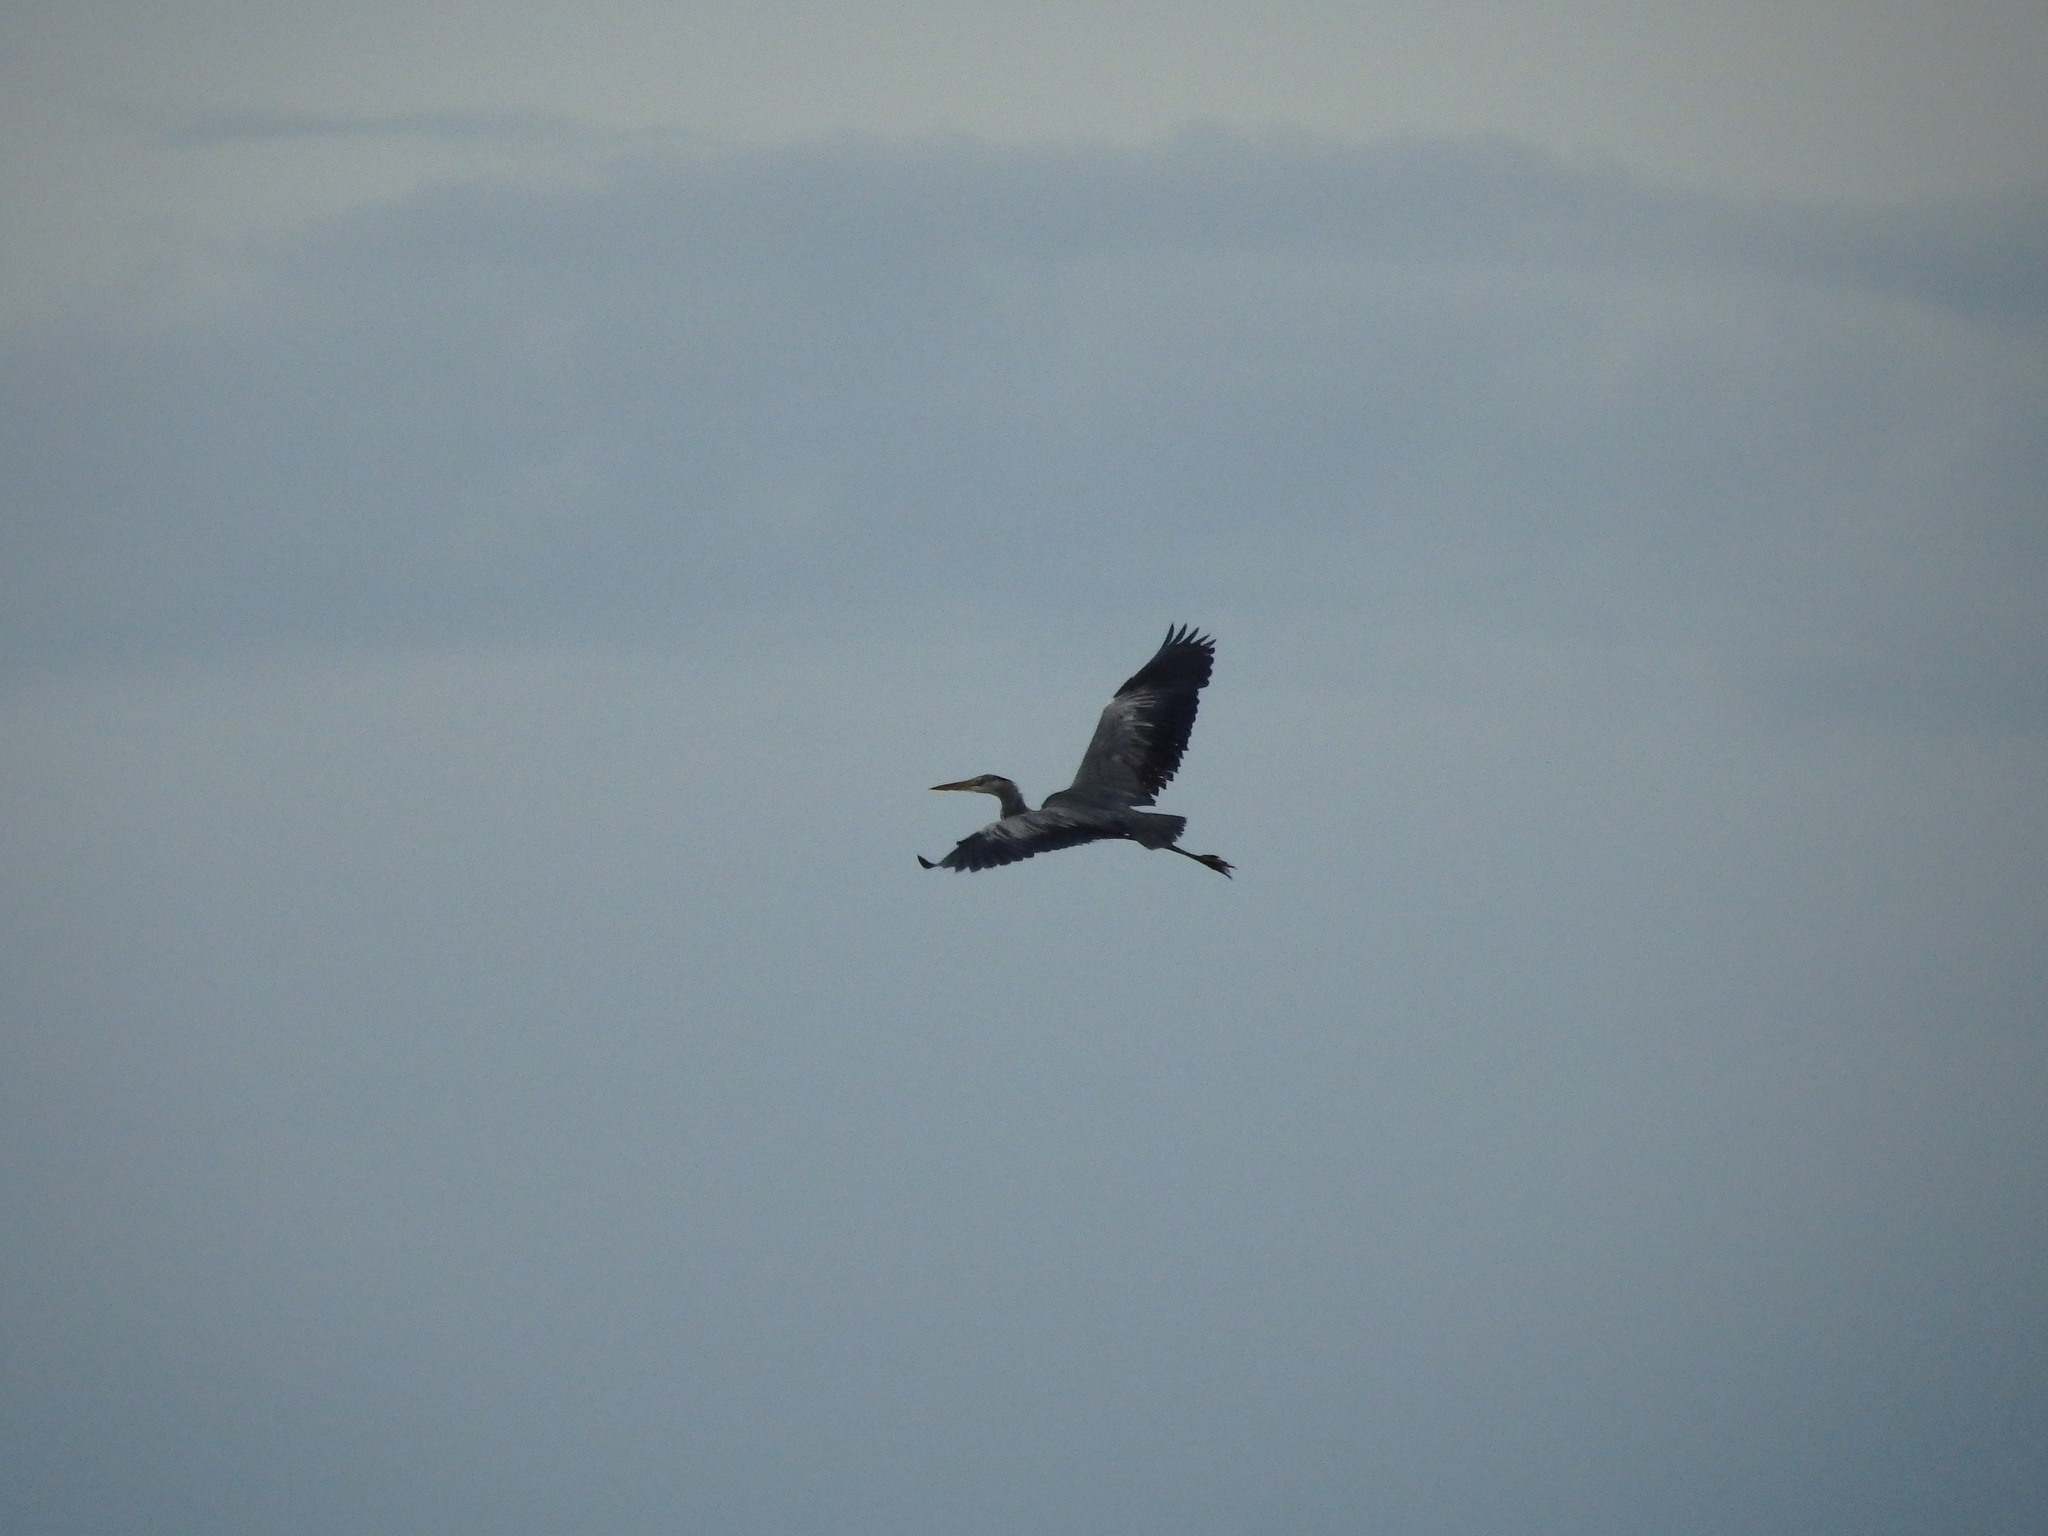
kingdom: Animalia
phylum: Chordata
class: Aves
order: Pelecaniformes
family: Ardeidae
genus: Ardea
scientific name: Ardea cinerea
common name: Grey heron
